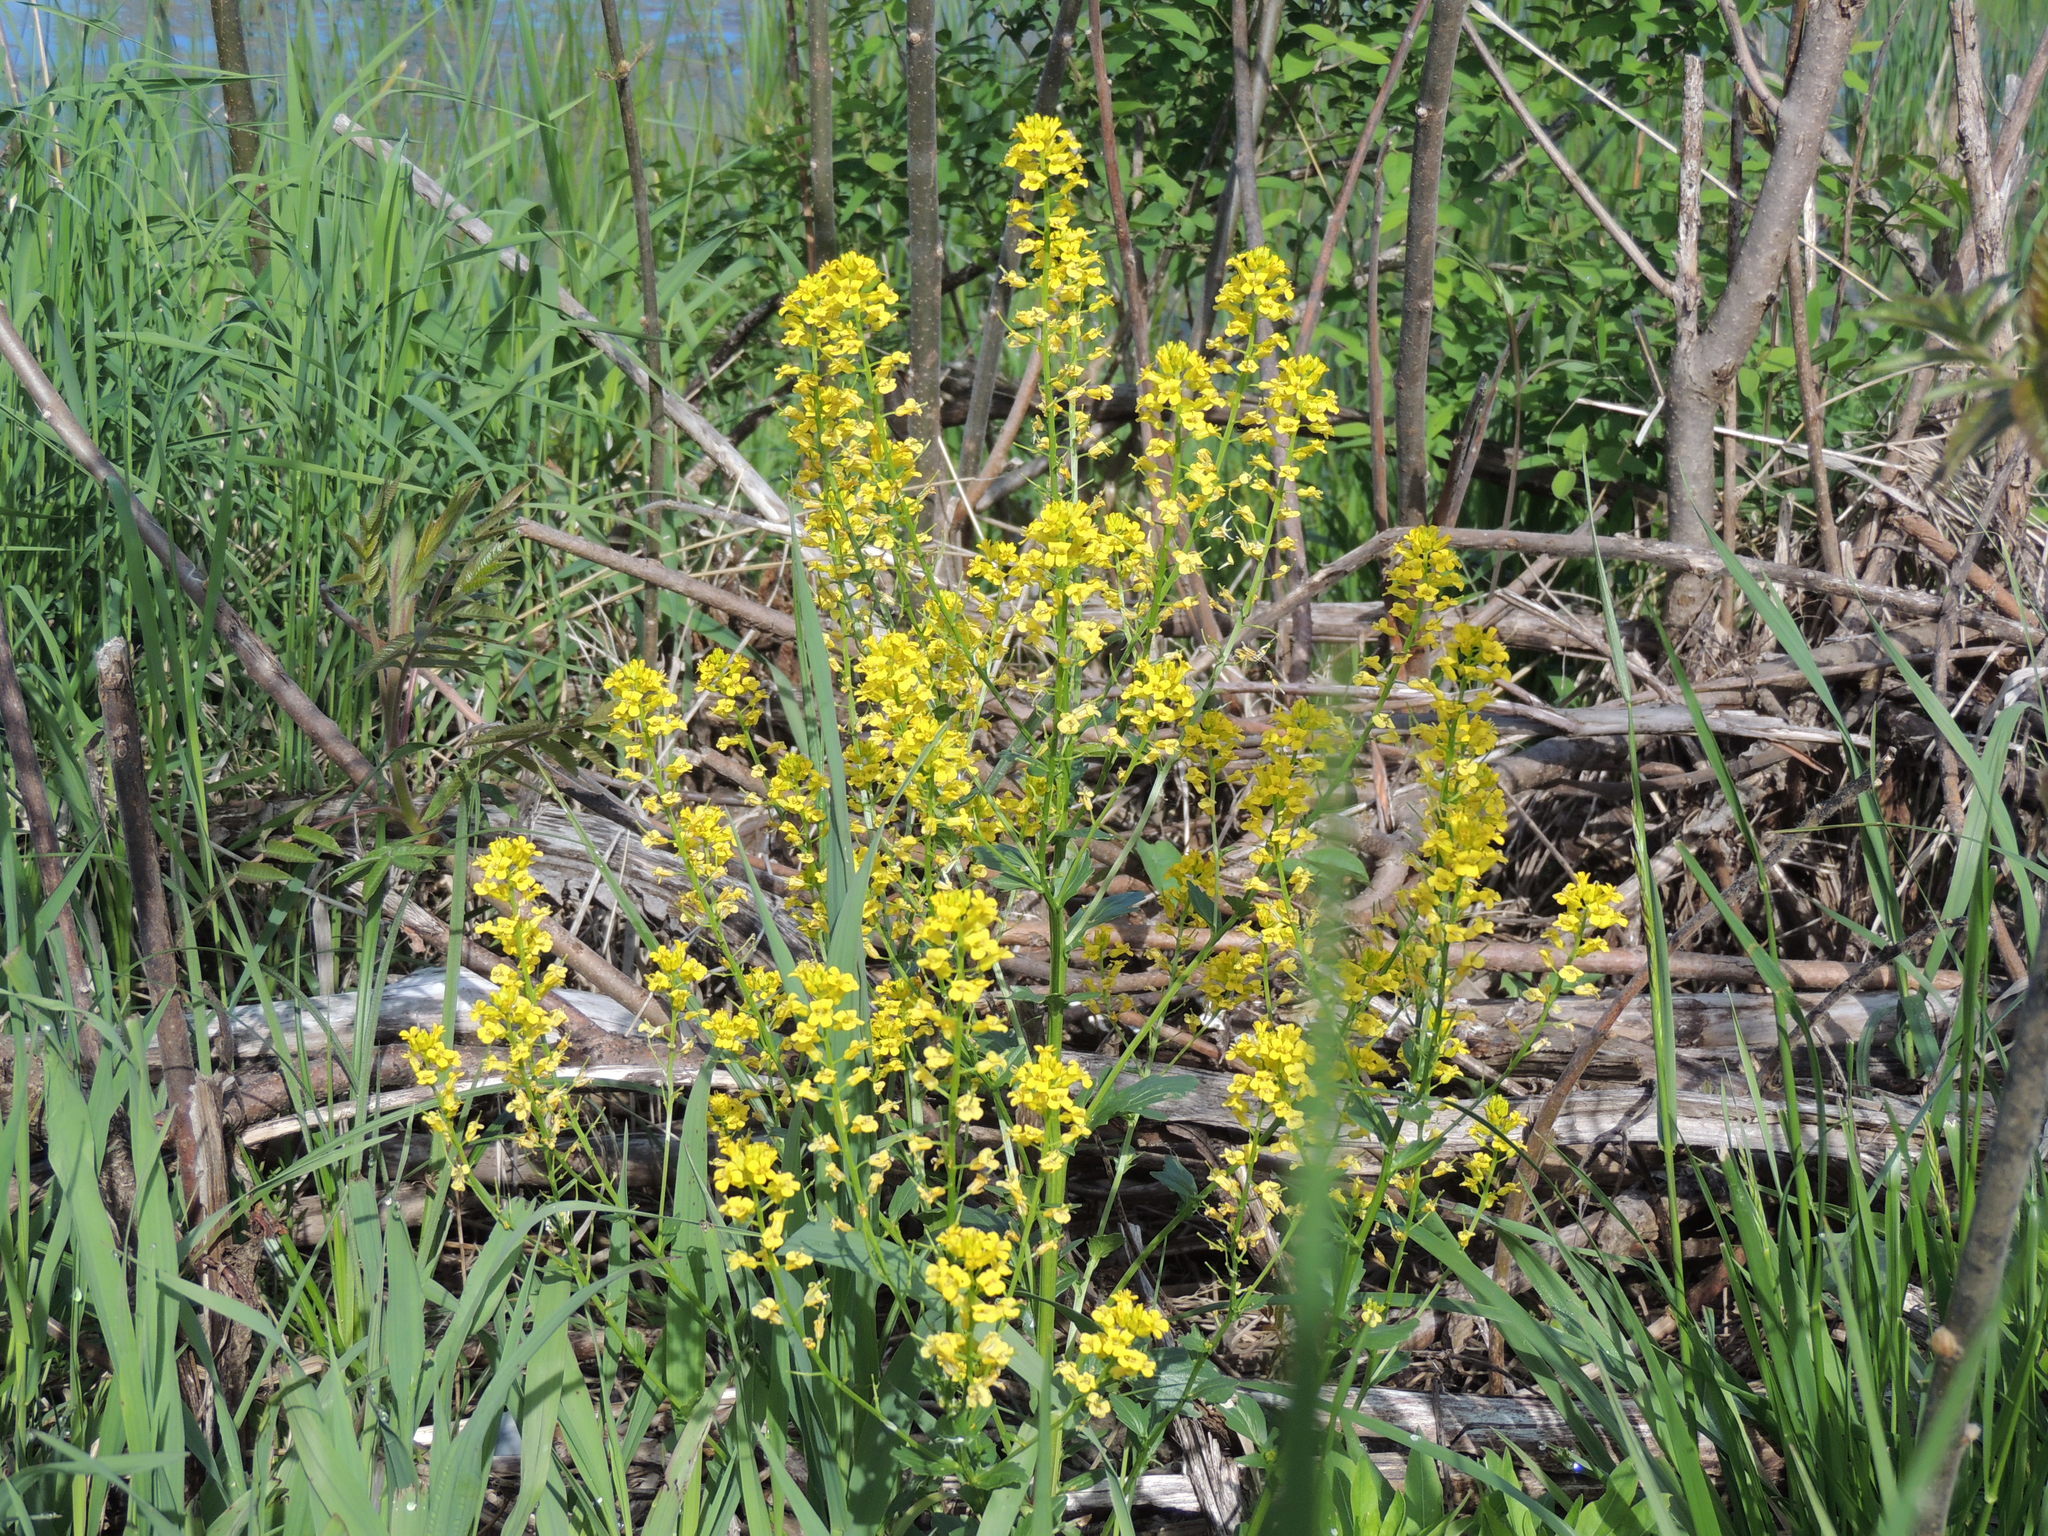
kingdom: Plantae
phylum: Tracheophyta
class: Magnoliopsida
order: Brassicales
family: Brassicaceae
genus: Barbarea
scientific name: Barbarea vulgaris
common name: Cressy-greens
